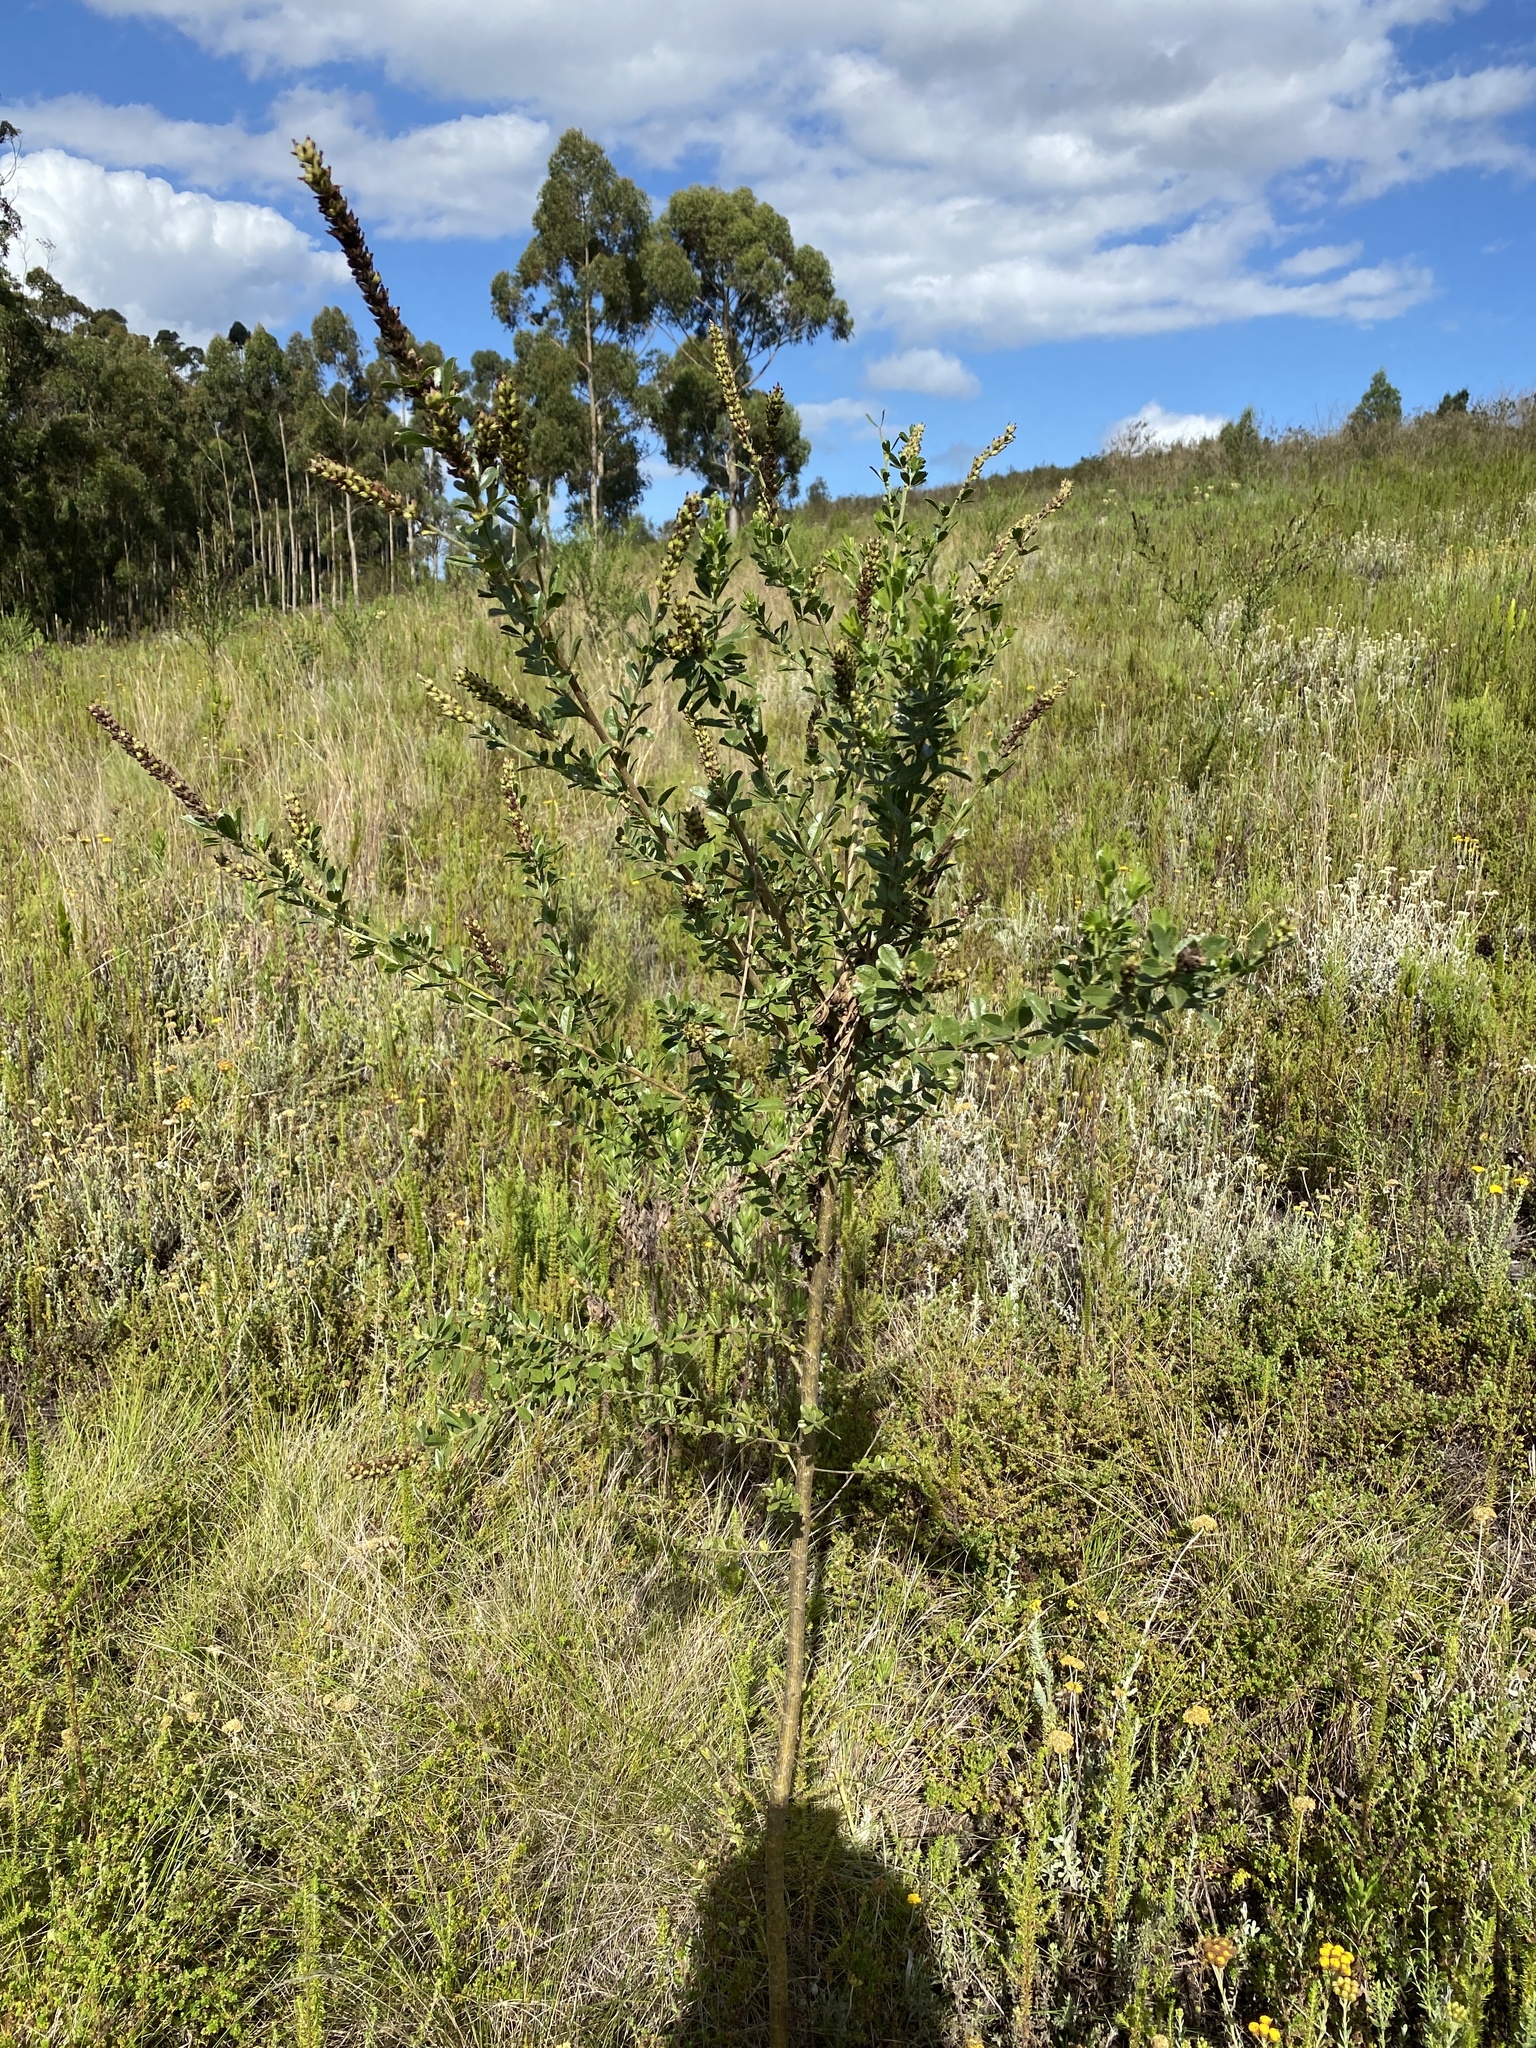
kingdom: Plantae
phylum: Tracheophyta
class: Magnoliopsida
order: Fabales
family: Fabaceae
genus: Psoralea
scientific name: Psoralea spicata
